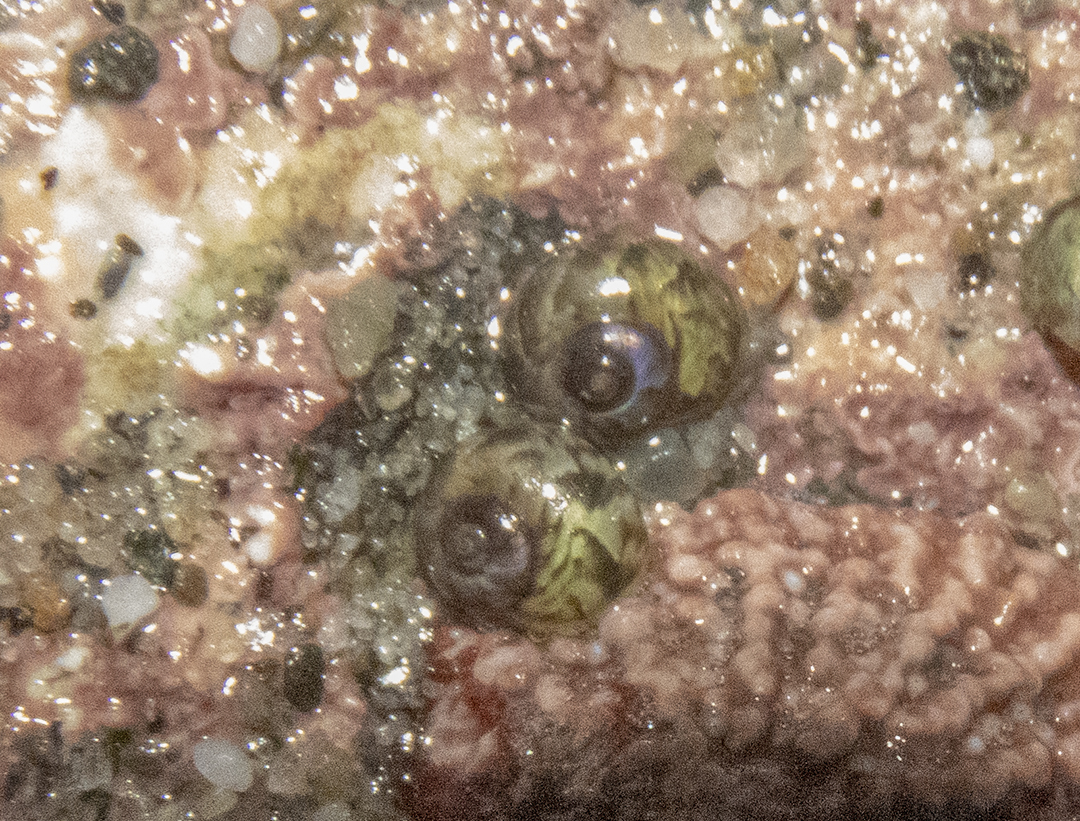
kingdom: Animalia
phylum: Mollusca
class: Gastropoda
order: Trochida
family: Trochidae
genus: Cantharidus
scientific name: Cantharidus puysegurensis
